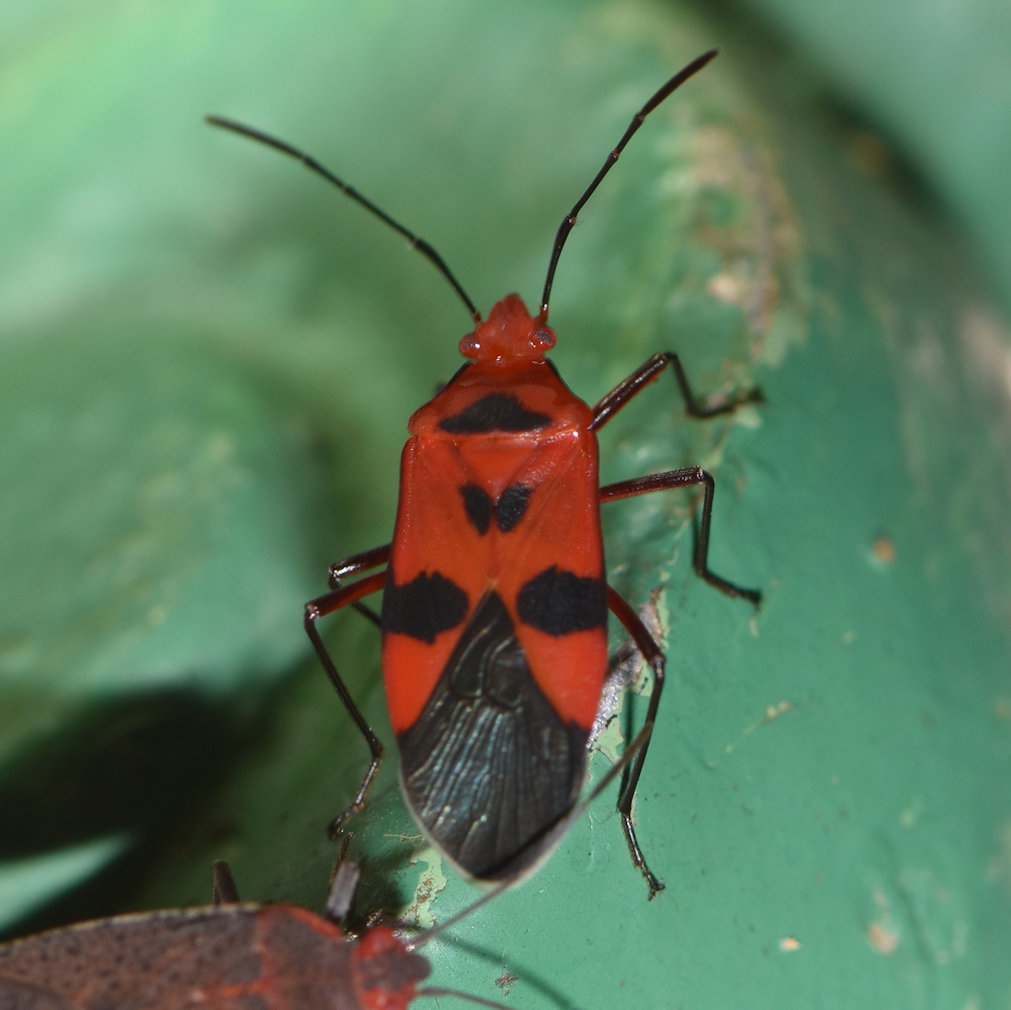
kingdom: Animalia
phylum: Arthropoda
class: Insecta
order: Hemiptera
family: Pyrrhocoridae
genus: Dysdercus
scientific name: Dysdercus
